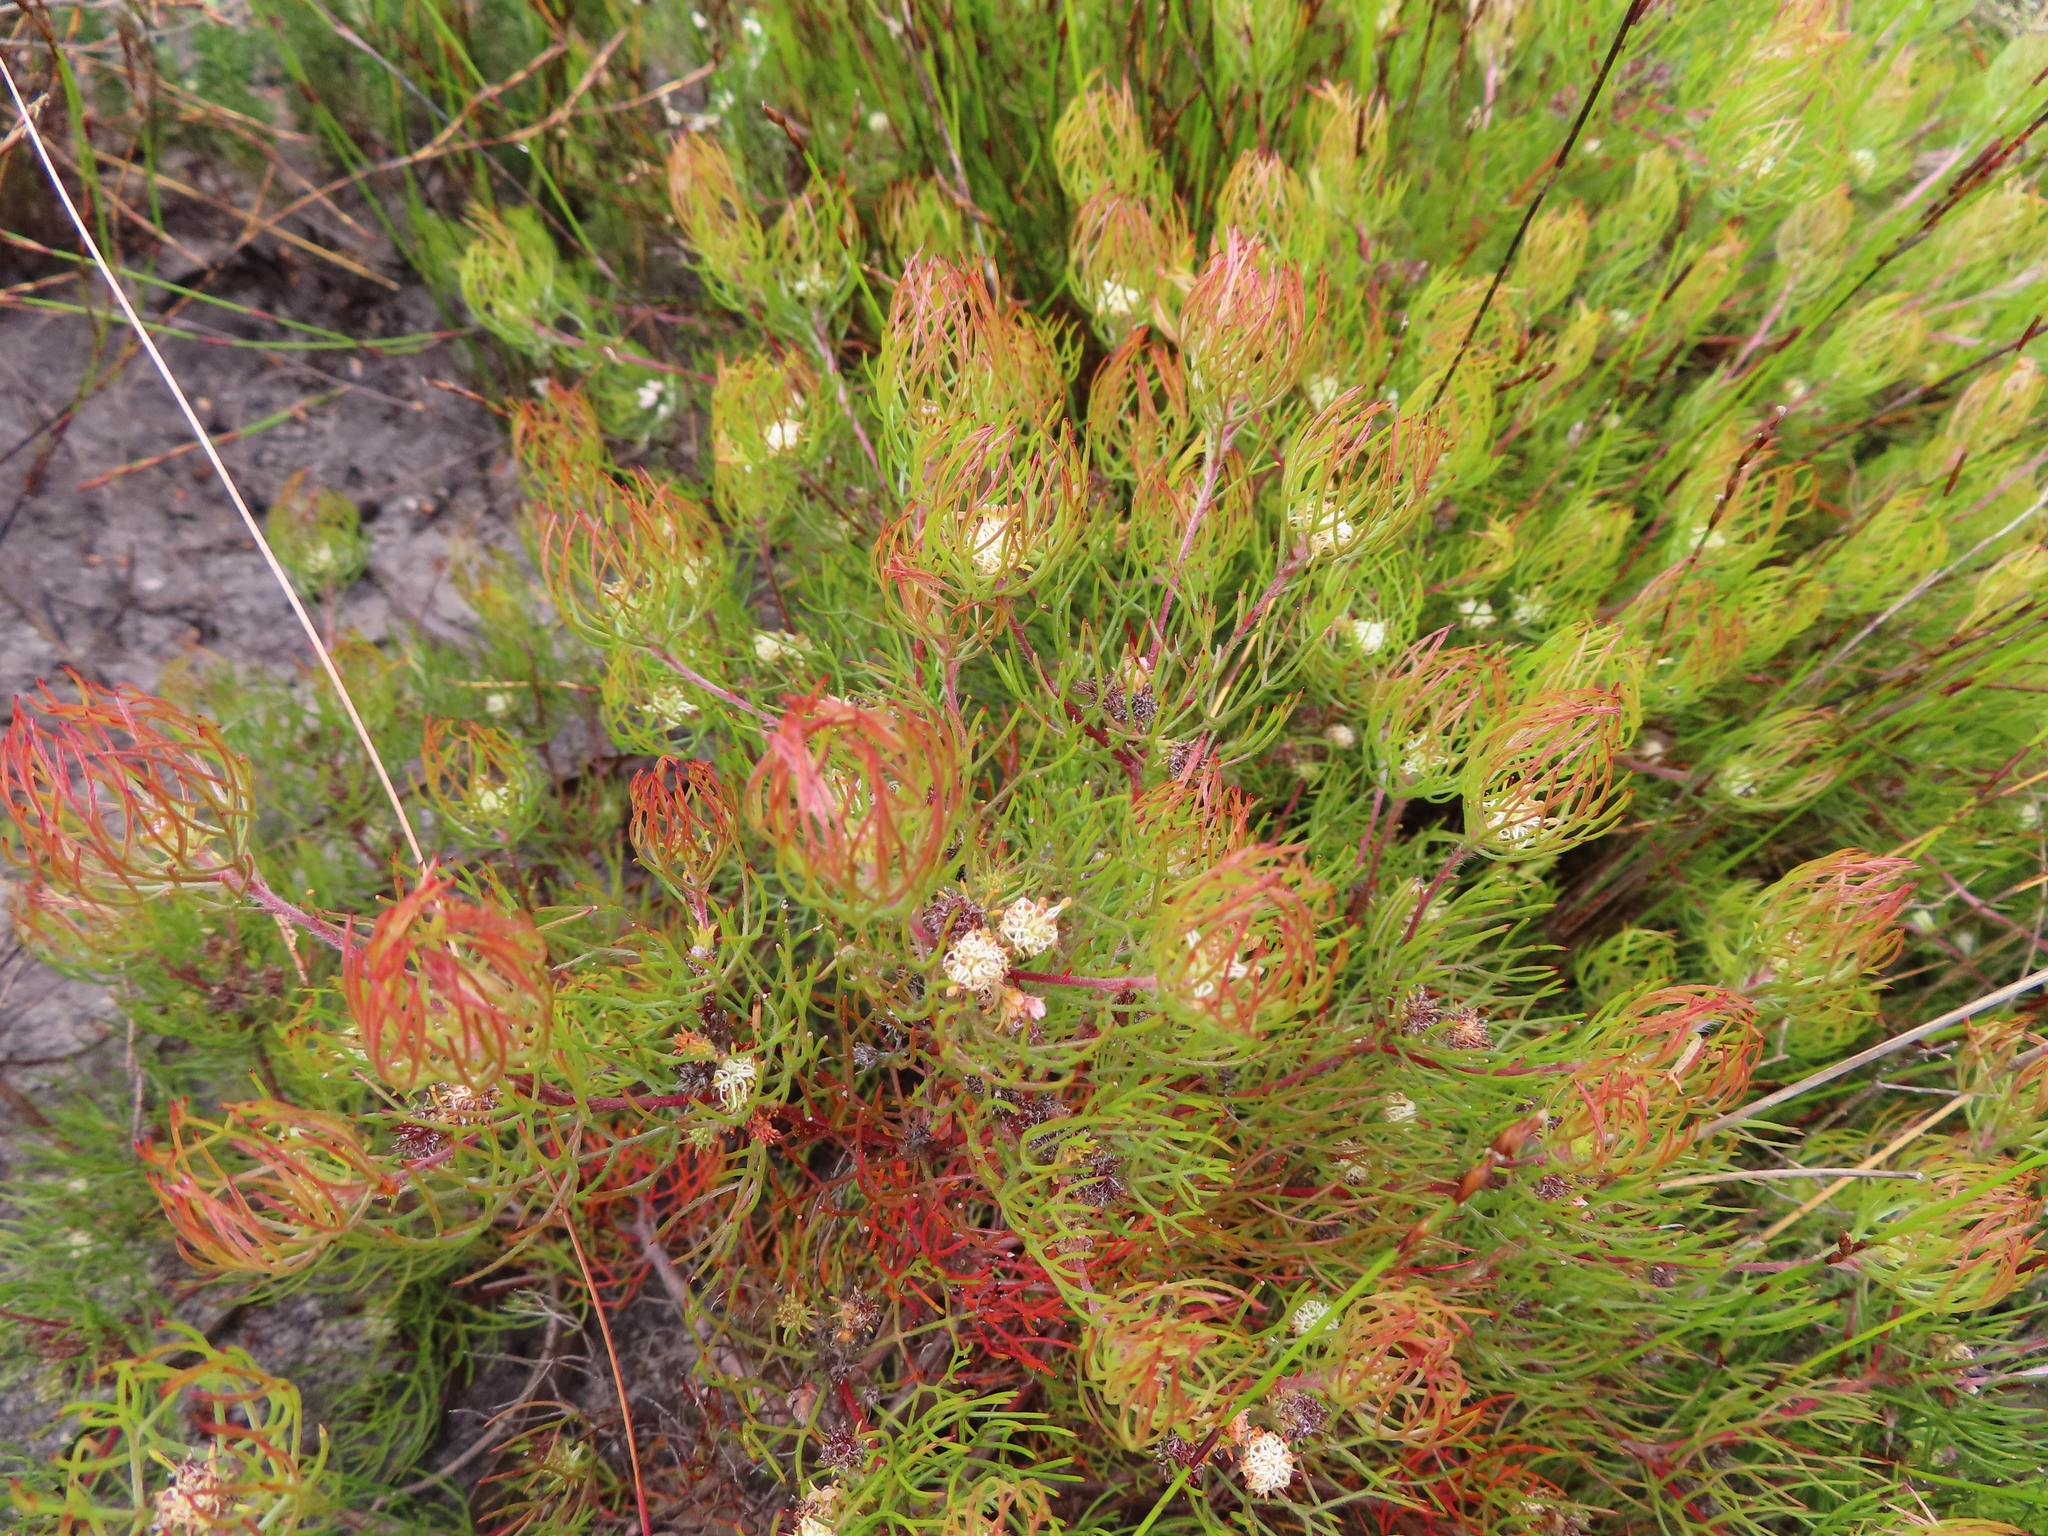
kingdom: Plantae
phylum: Tracheophyta
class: Magnoliopsida
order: Proteales
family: Proteaceae
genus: Serruria
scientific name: Serruria inconspicua
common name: Cryptic spiderhead
